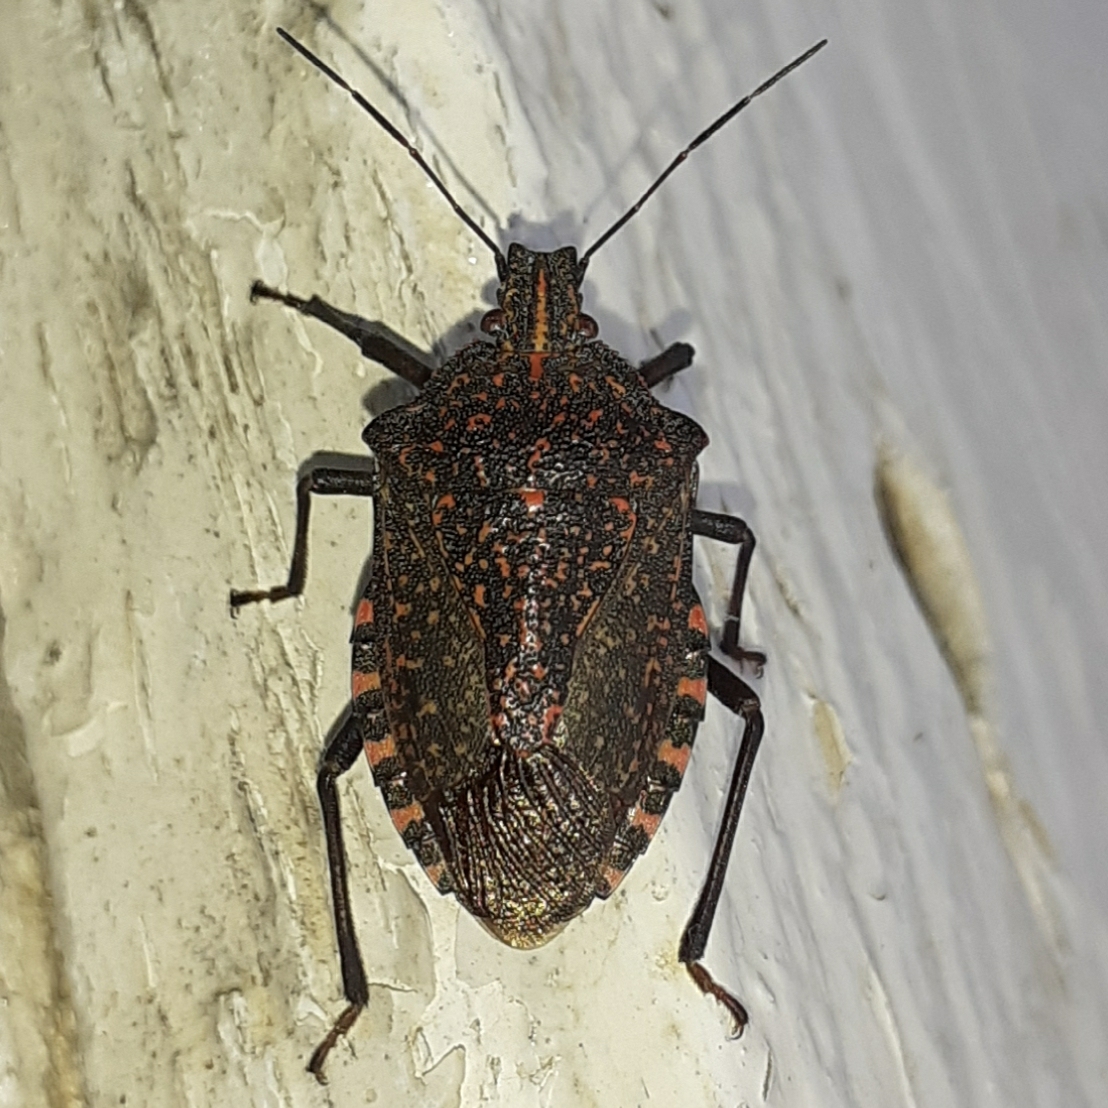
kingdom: Animalia
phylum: Arthropoda
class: Insecta
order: Hemiptera
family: Pentatomidae
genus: Apodiphus
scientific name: Apodiphus amygdali
